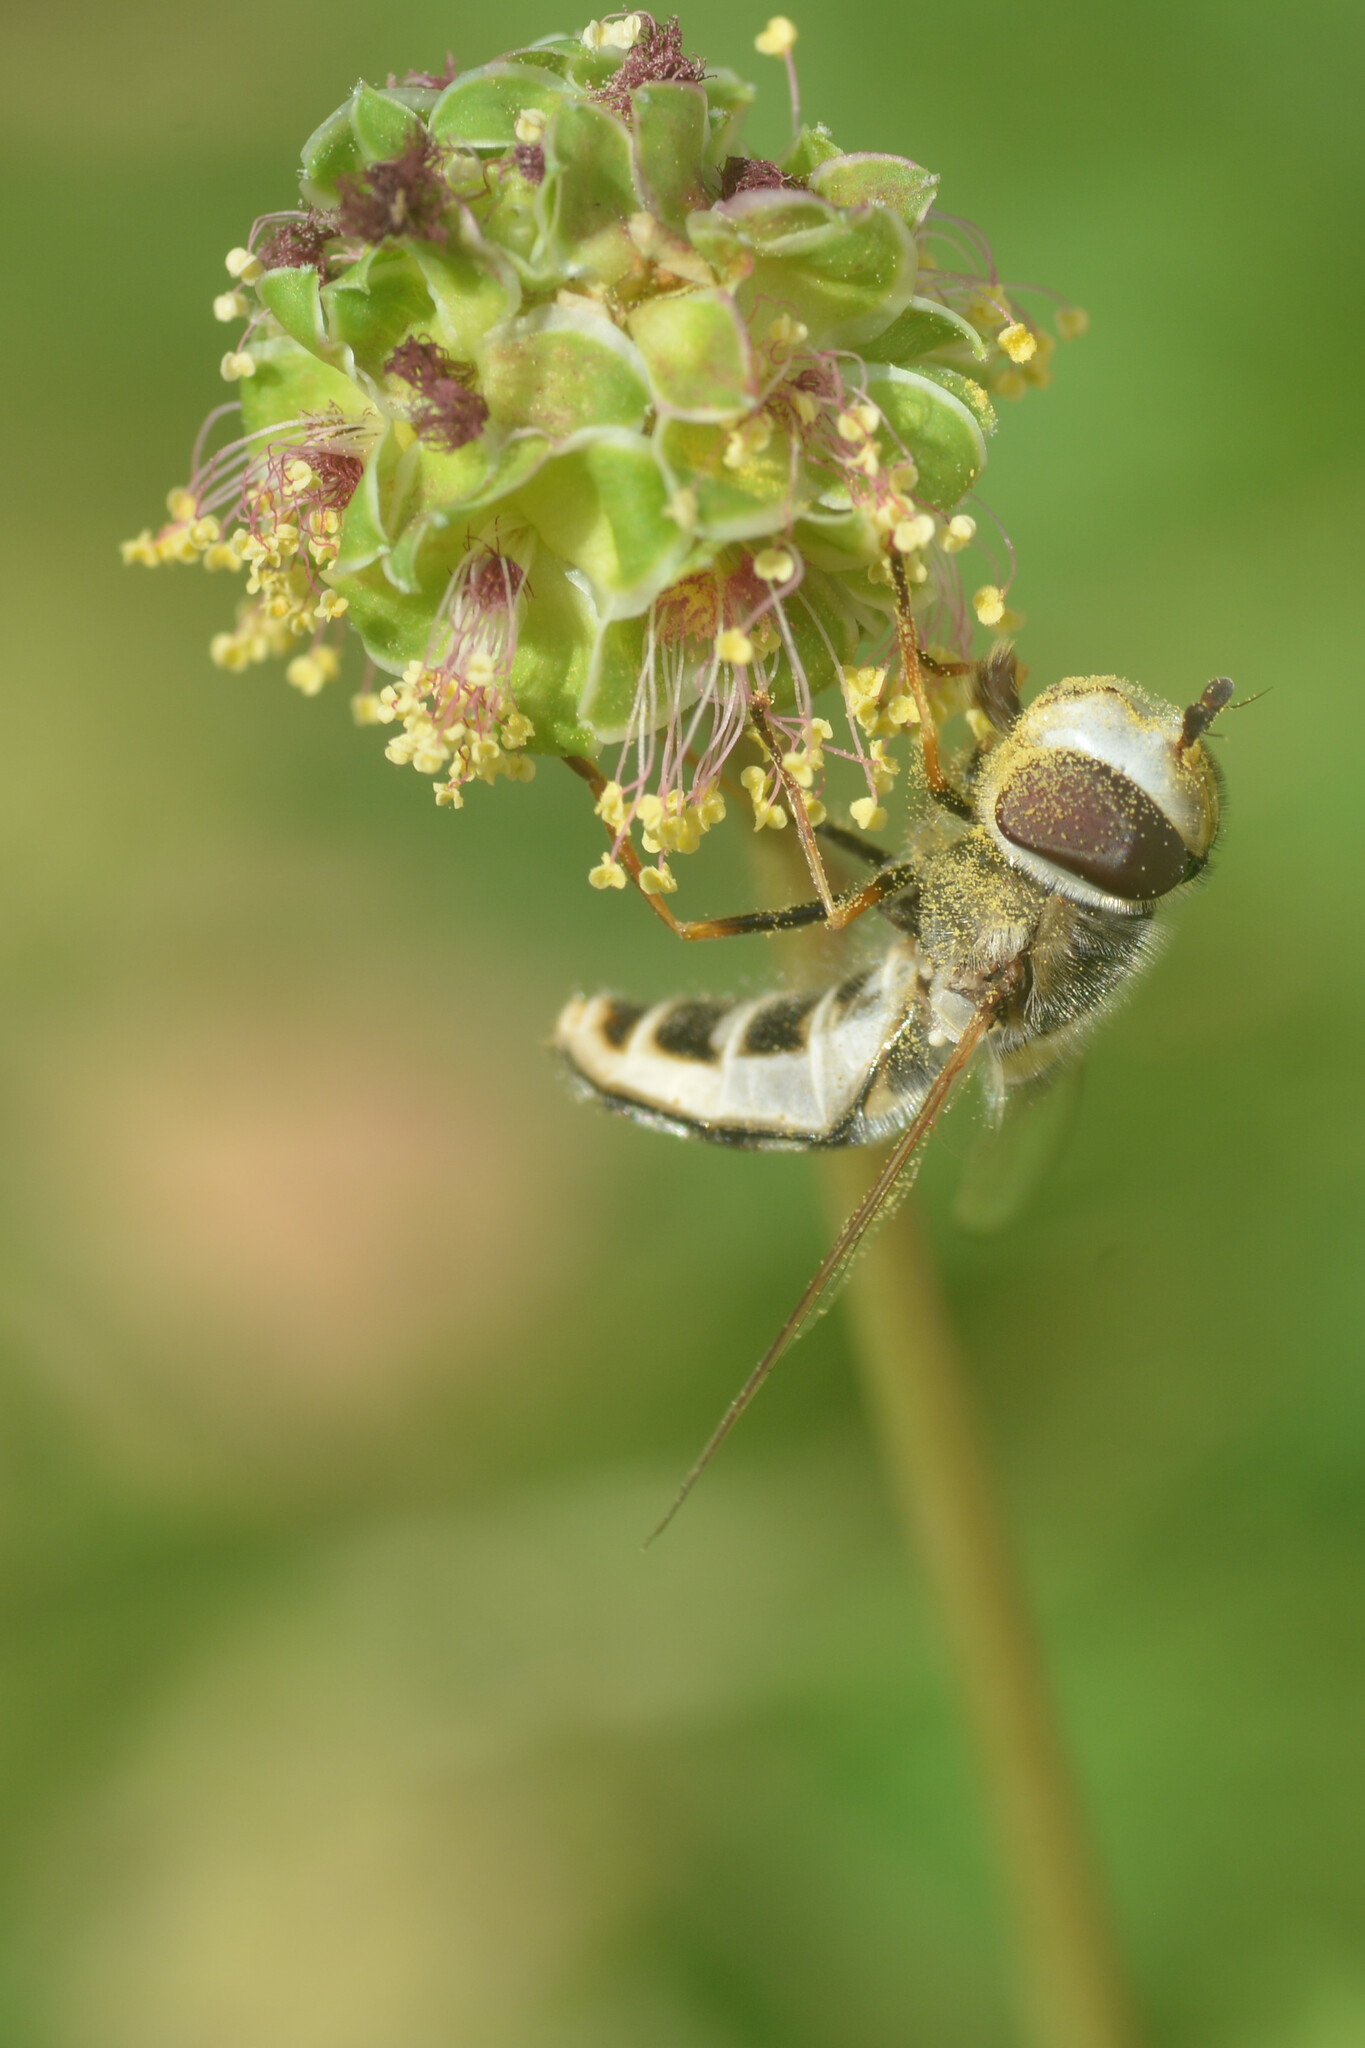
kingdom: Animalia
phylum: Arthropoda
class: Insecta
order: Diptera
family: Syrphidae
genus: Scaeva
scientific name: Scaeva pyrastri
